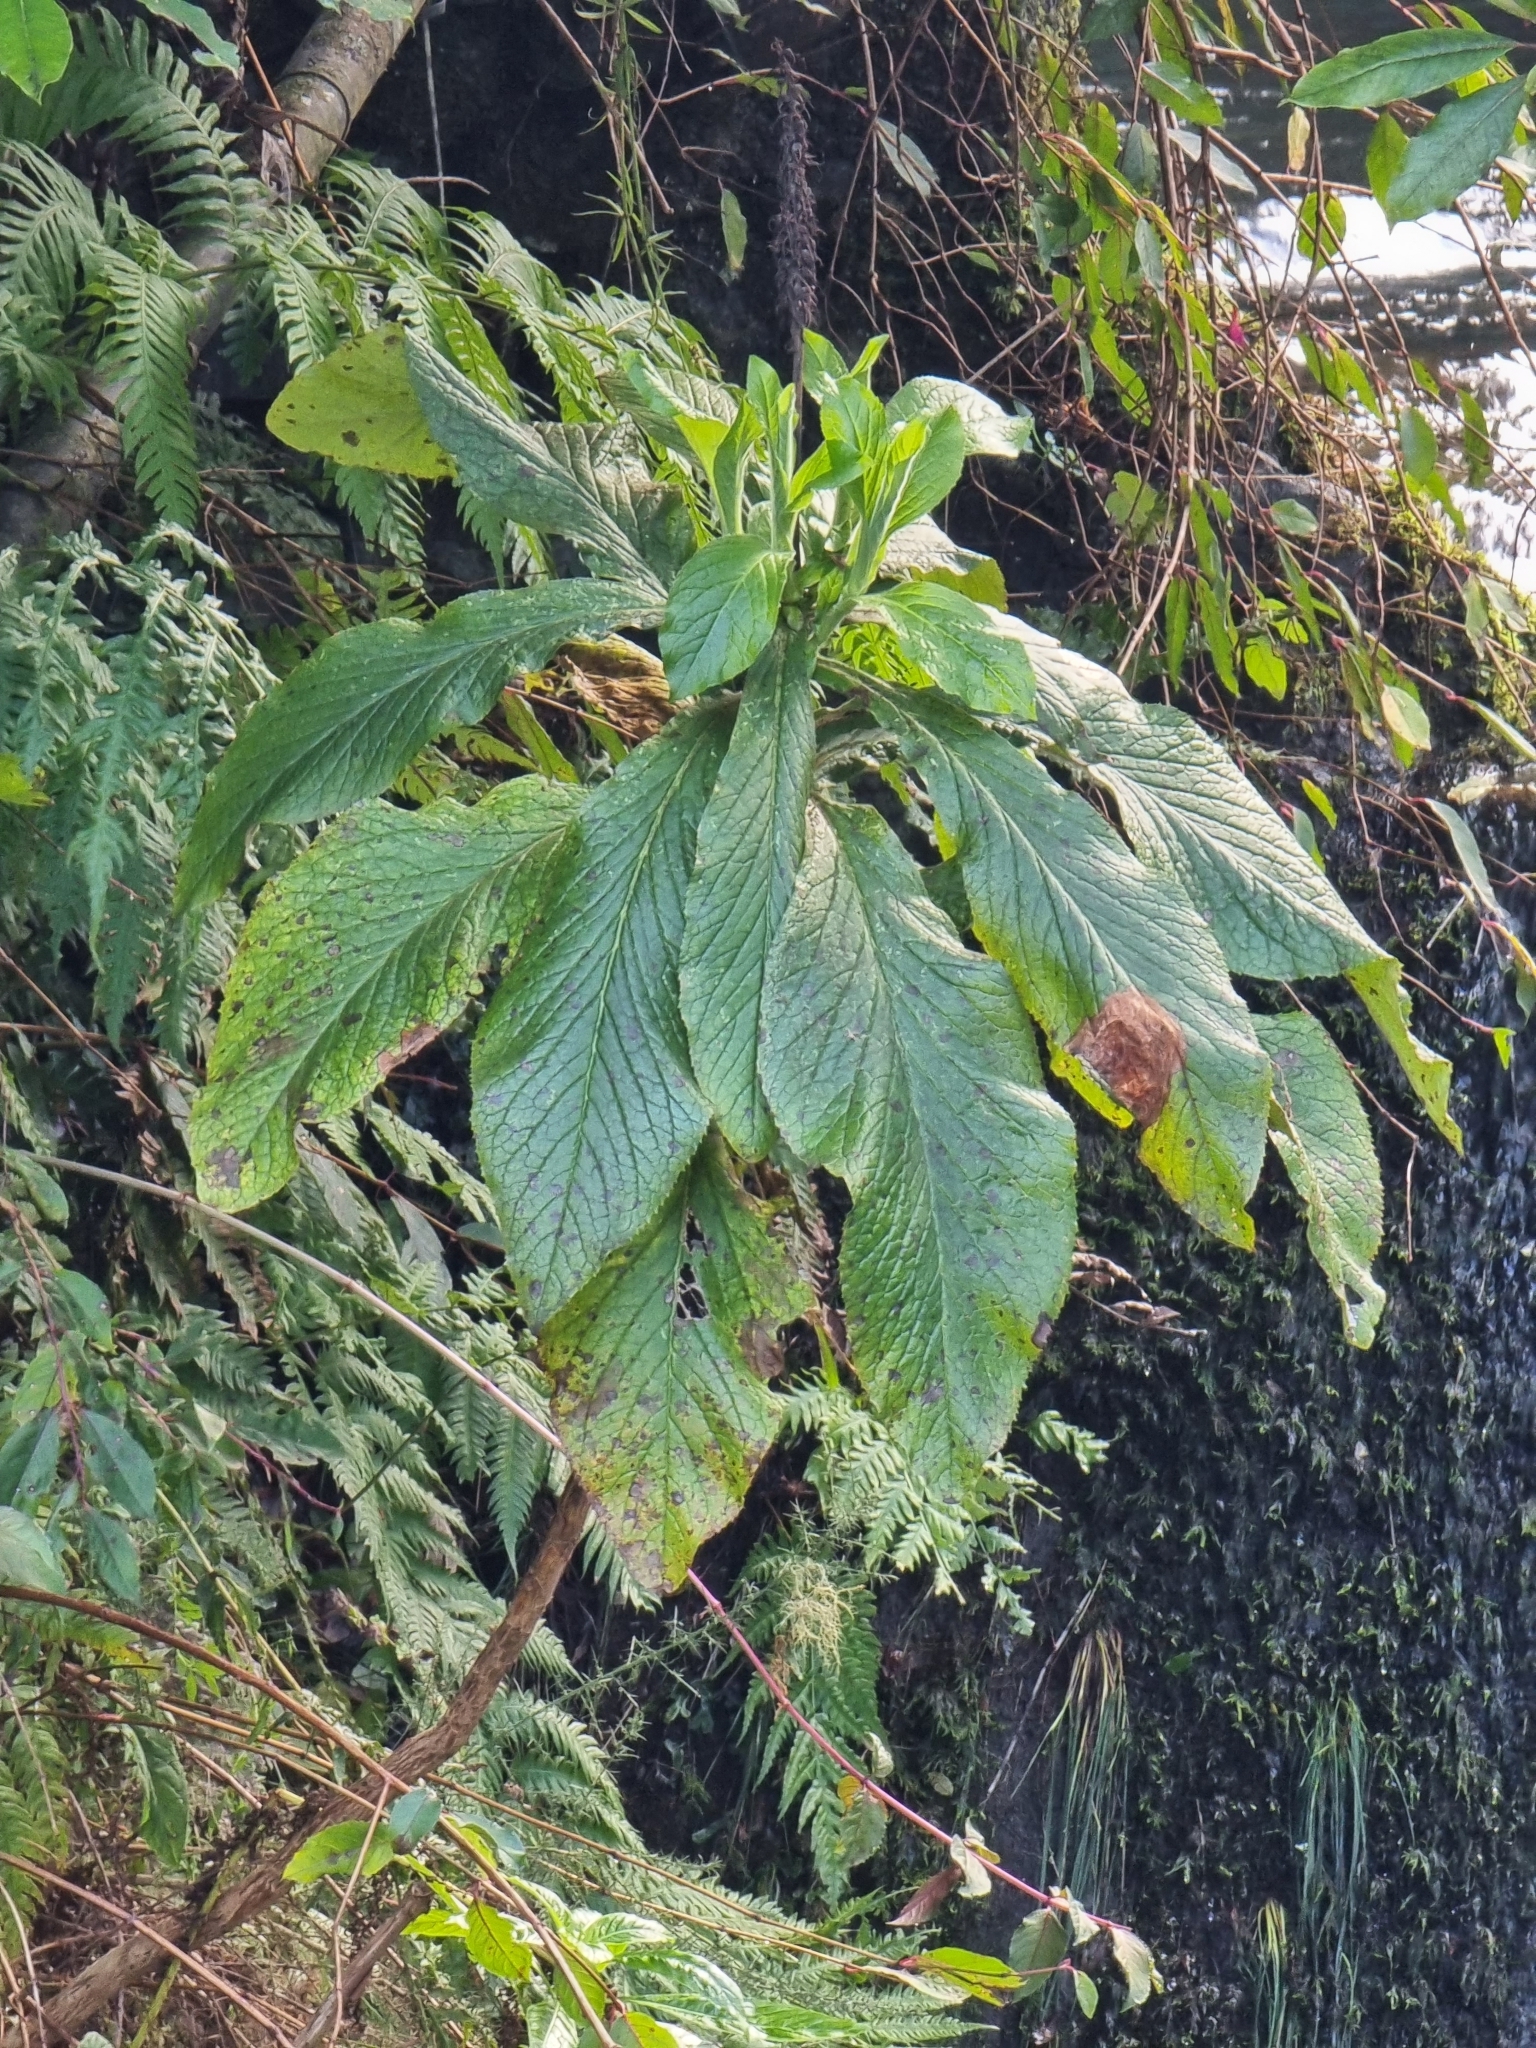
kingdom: Plantae
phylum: Tracheophyta
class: Magnoliopsida
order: Lamiales
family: Plantaginaceae
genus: Digitalis
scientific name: Digitalis sceptrum
